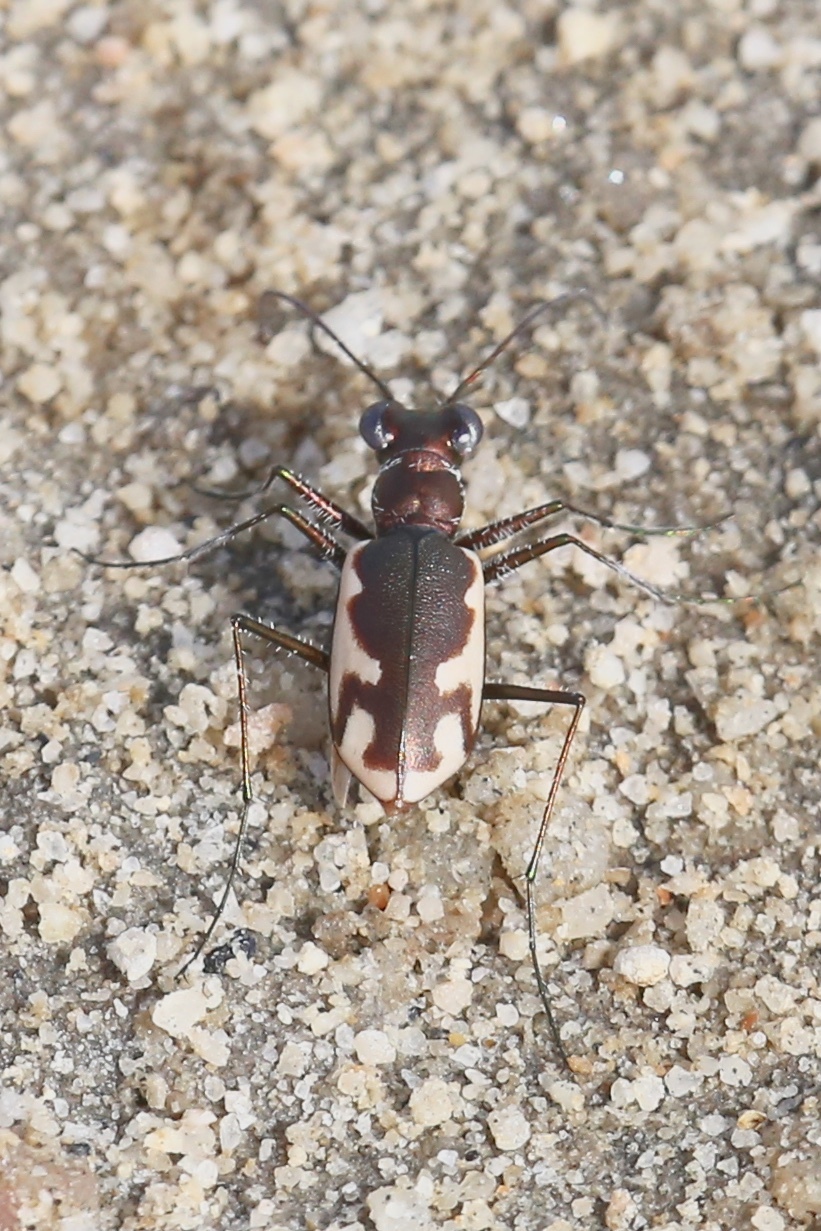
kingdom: Animalia
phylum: Arthropoda
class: Insecta
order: Coleoptera
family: Carabidae
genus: Eunota
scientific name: Eunota californica
